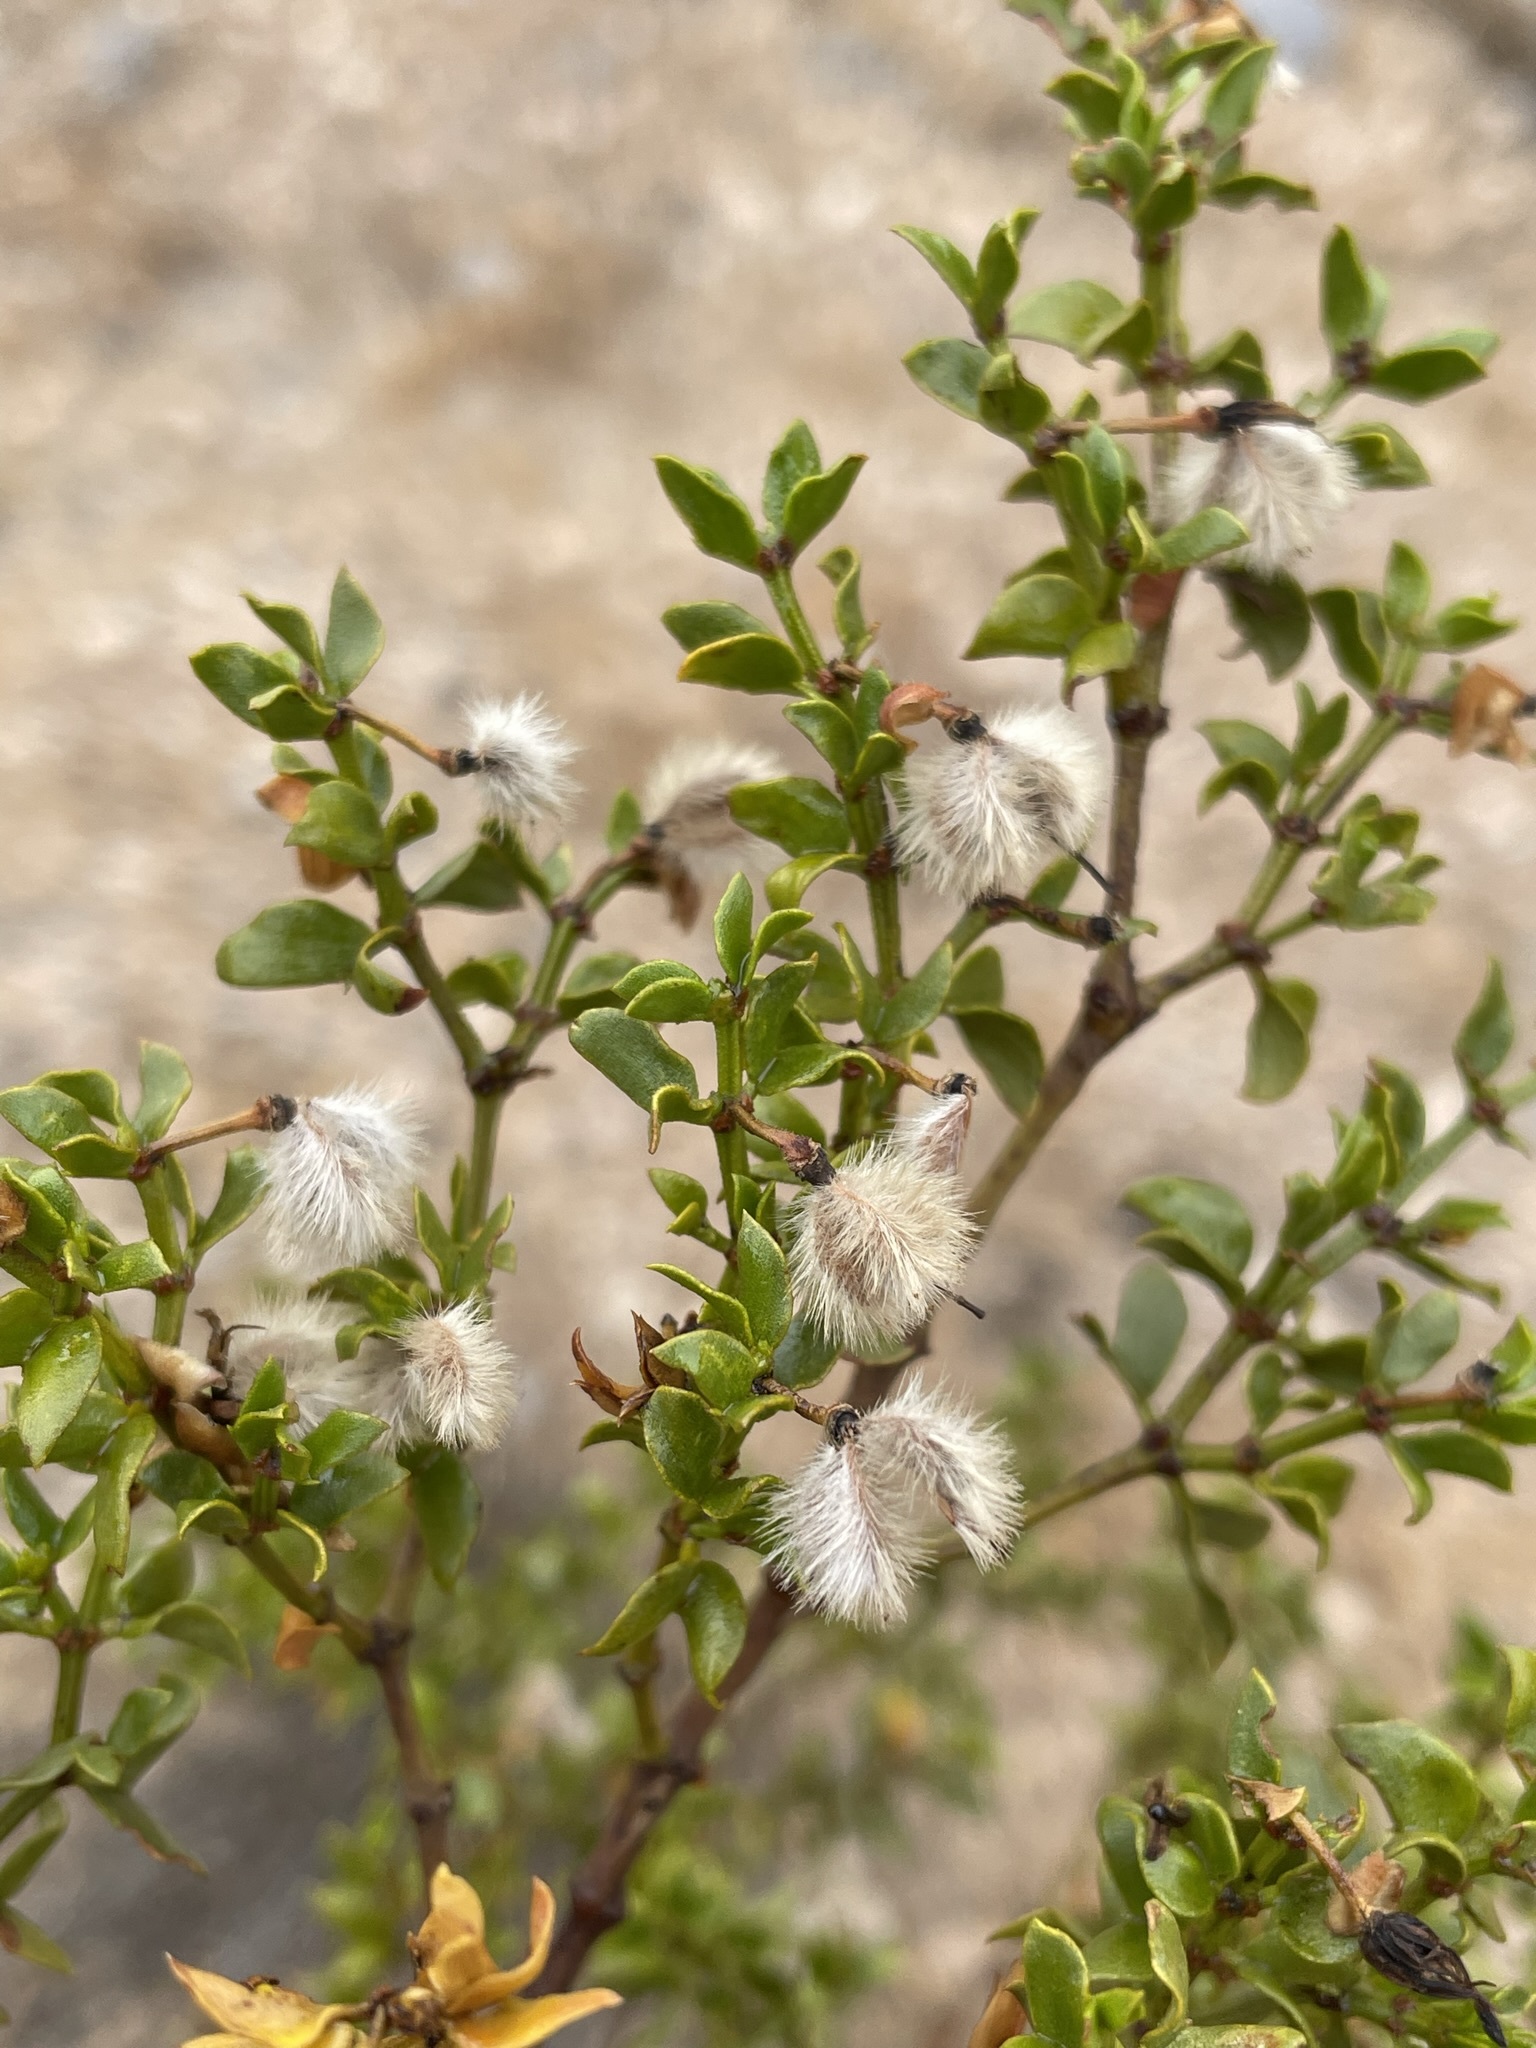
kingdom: Plantae
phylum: Tracheophyta
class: Magnoliopsida
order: Zygophyllales
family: Zygophyllaceae
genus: Larrea
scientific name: Larrea tridentata
